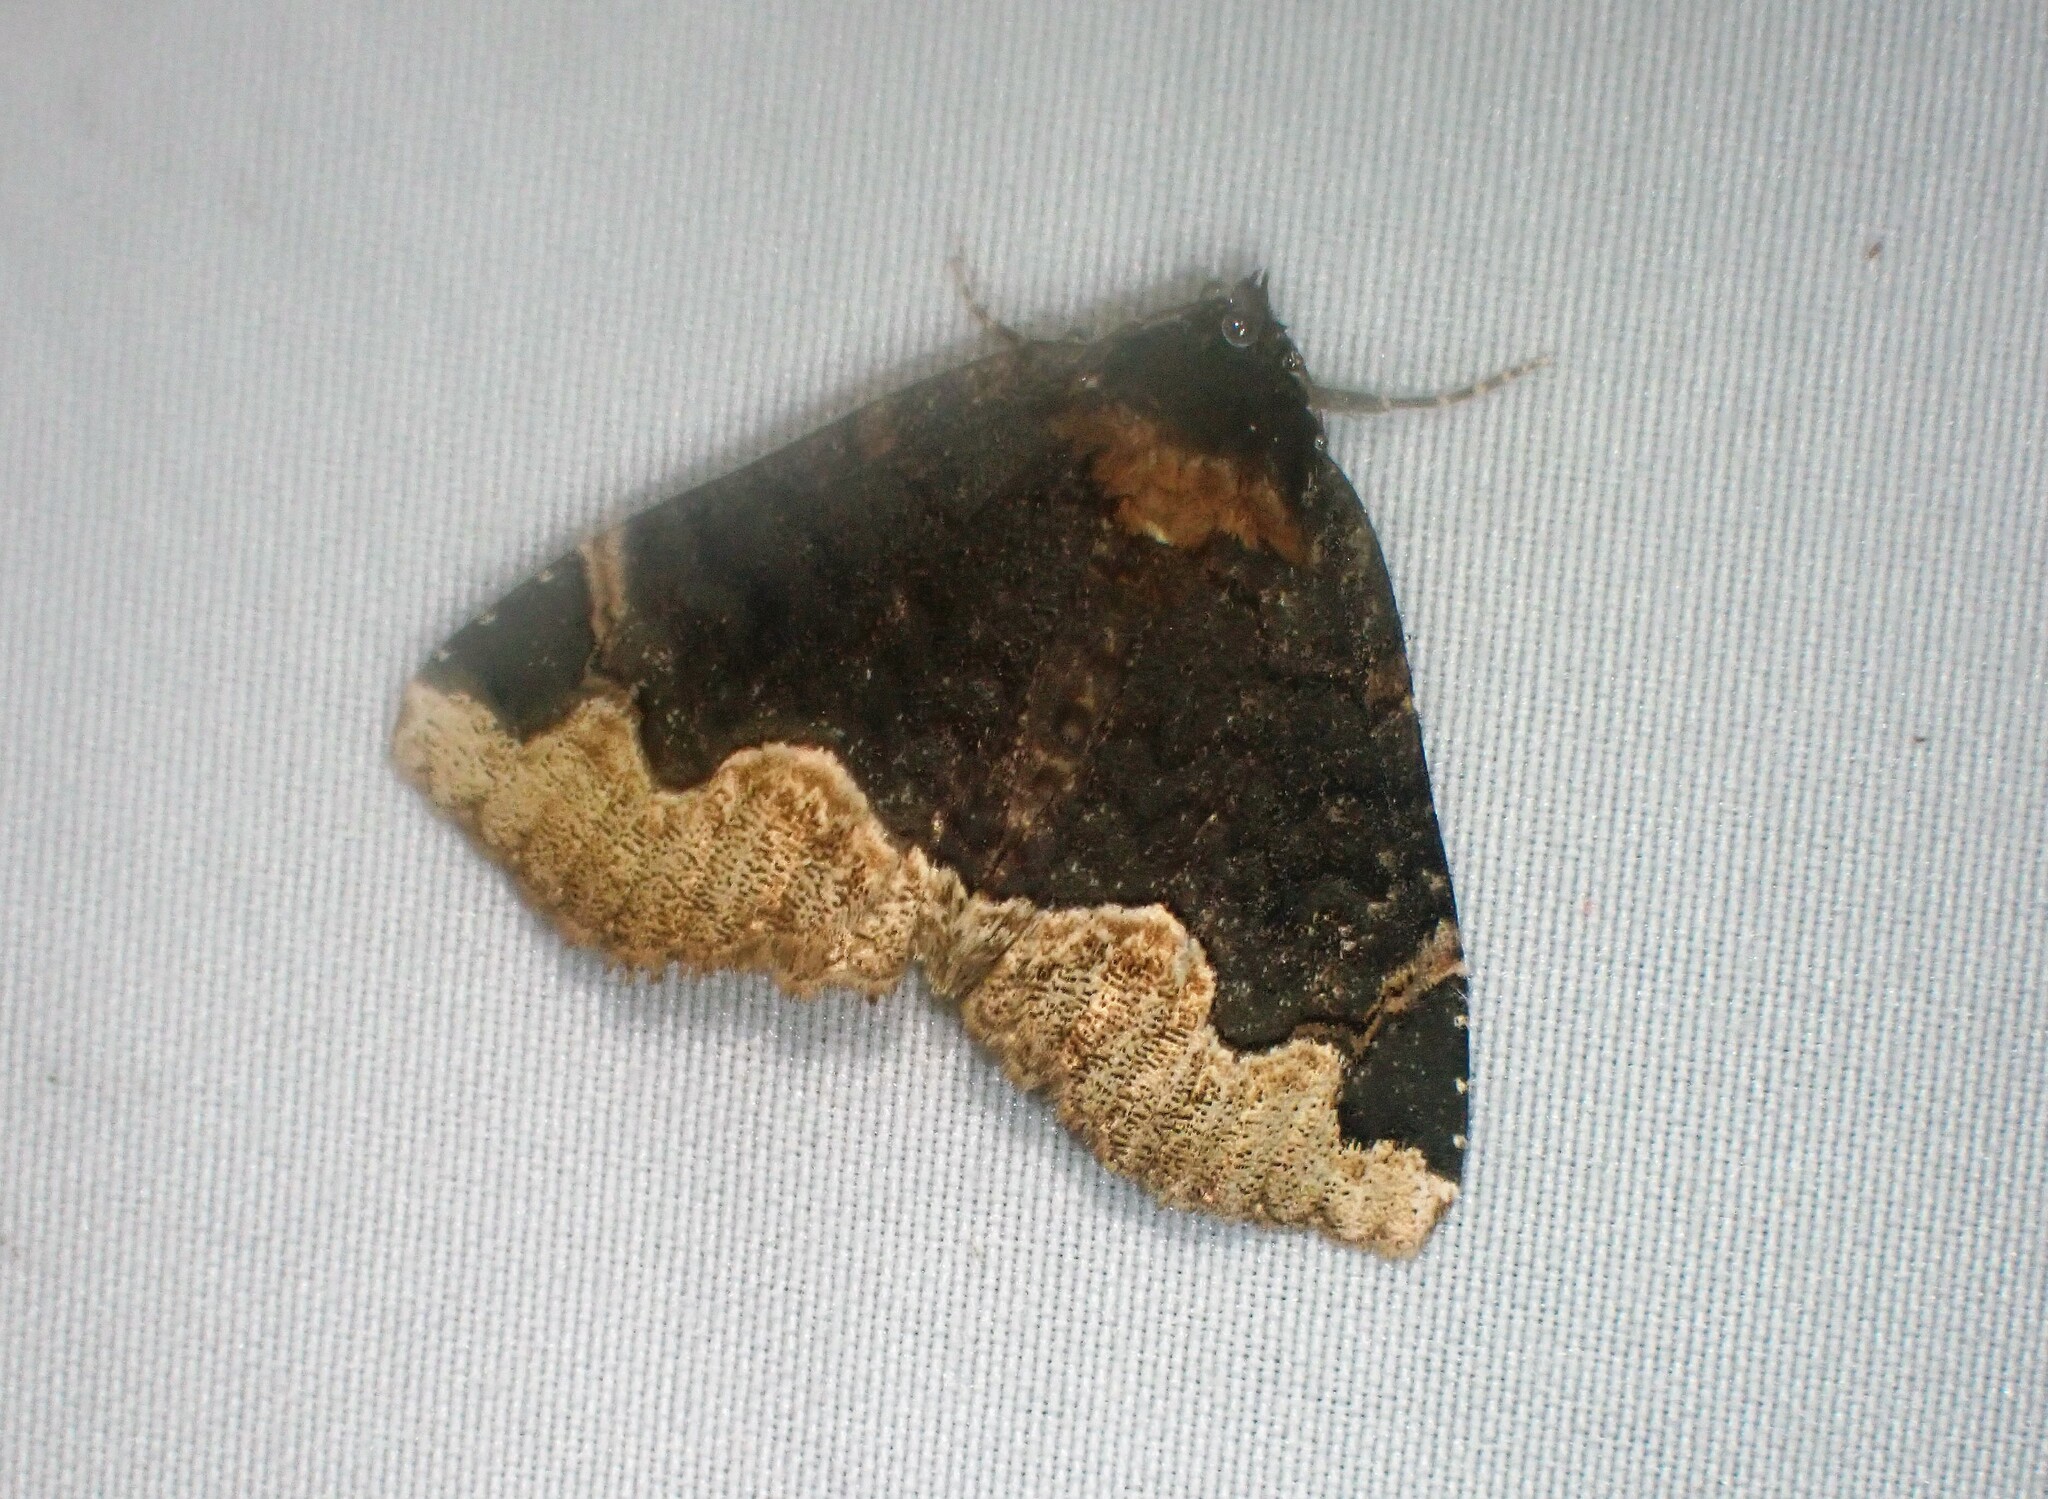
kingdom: Animalia
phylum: Arthropoda
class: Insecta
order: Lepidoptera
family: Erebidae
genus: Zale
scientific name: Zale horrida
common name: Horrid zale moth
